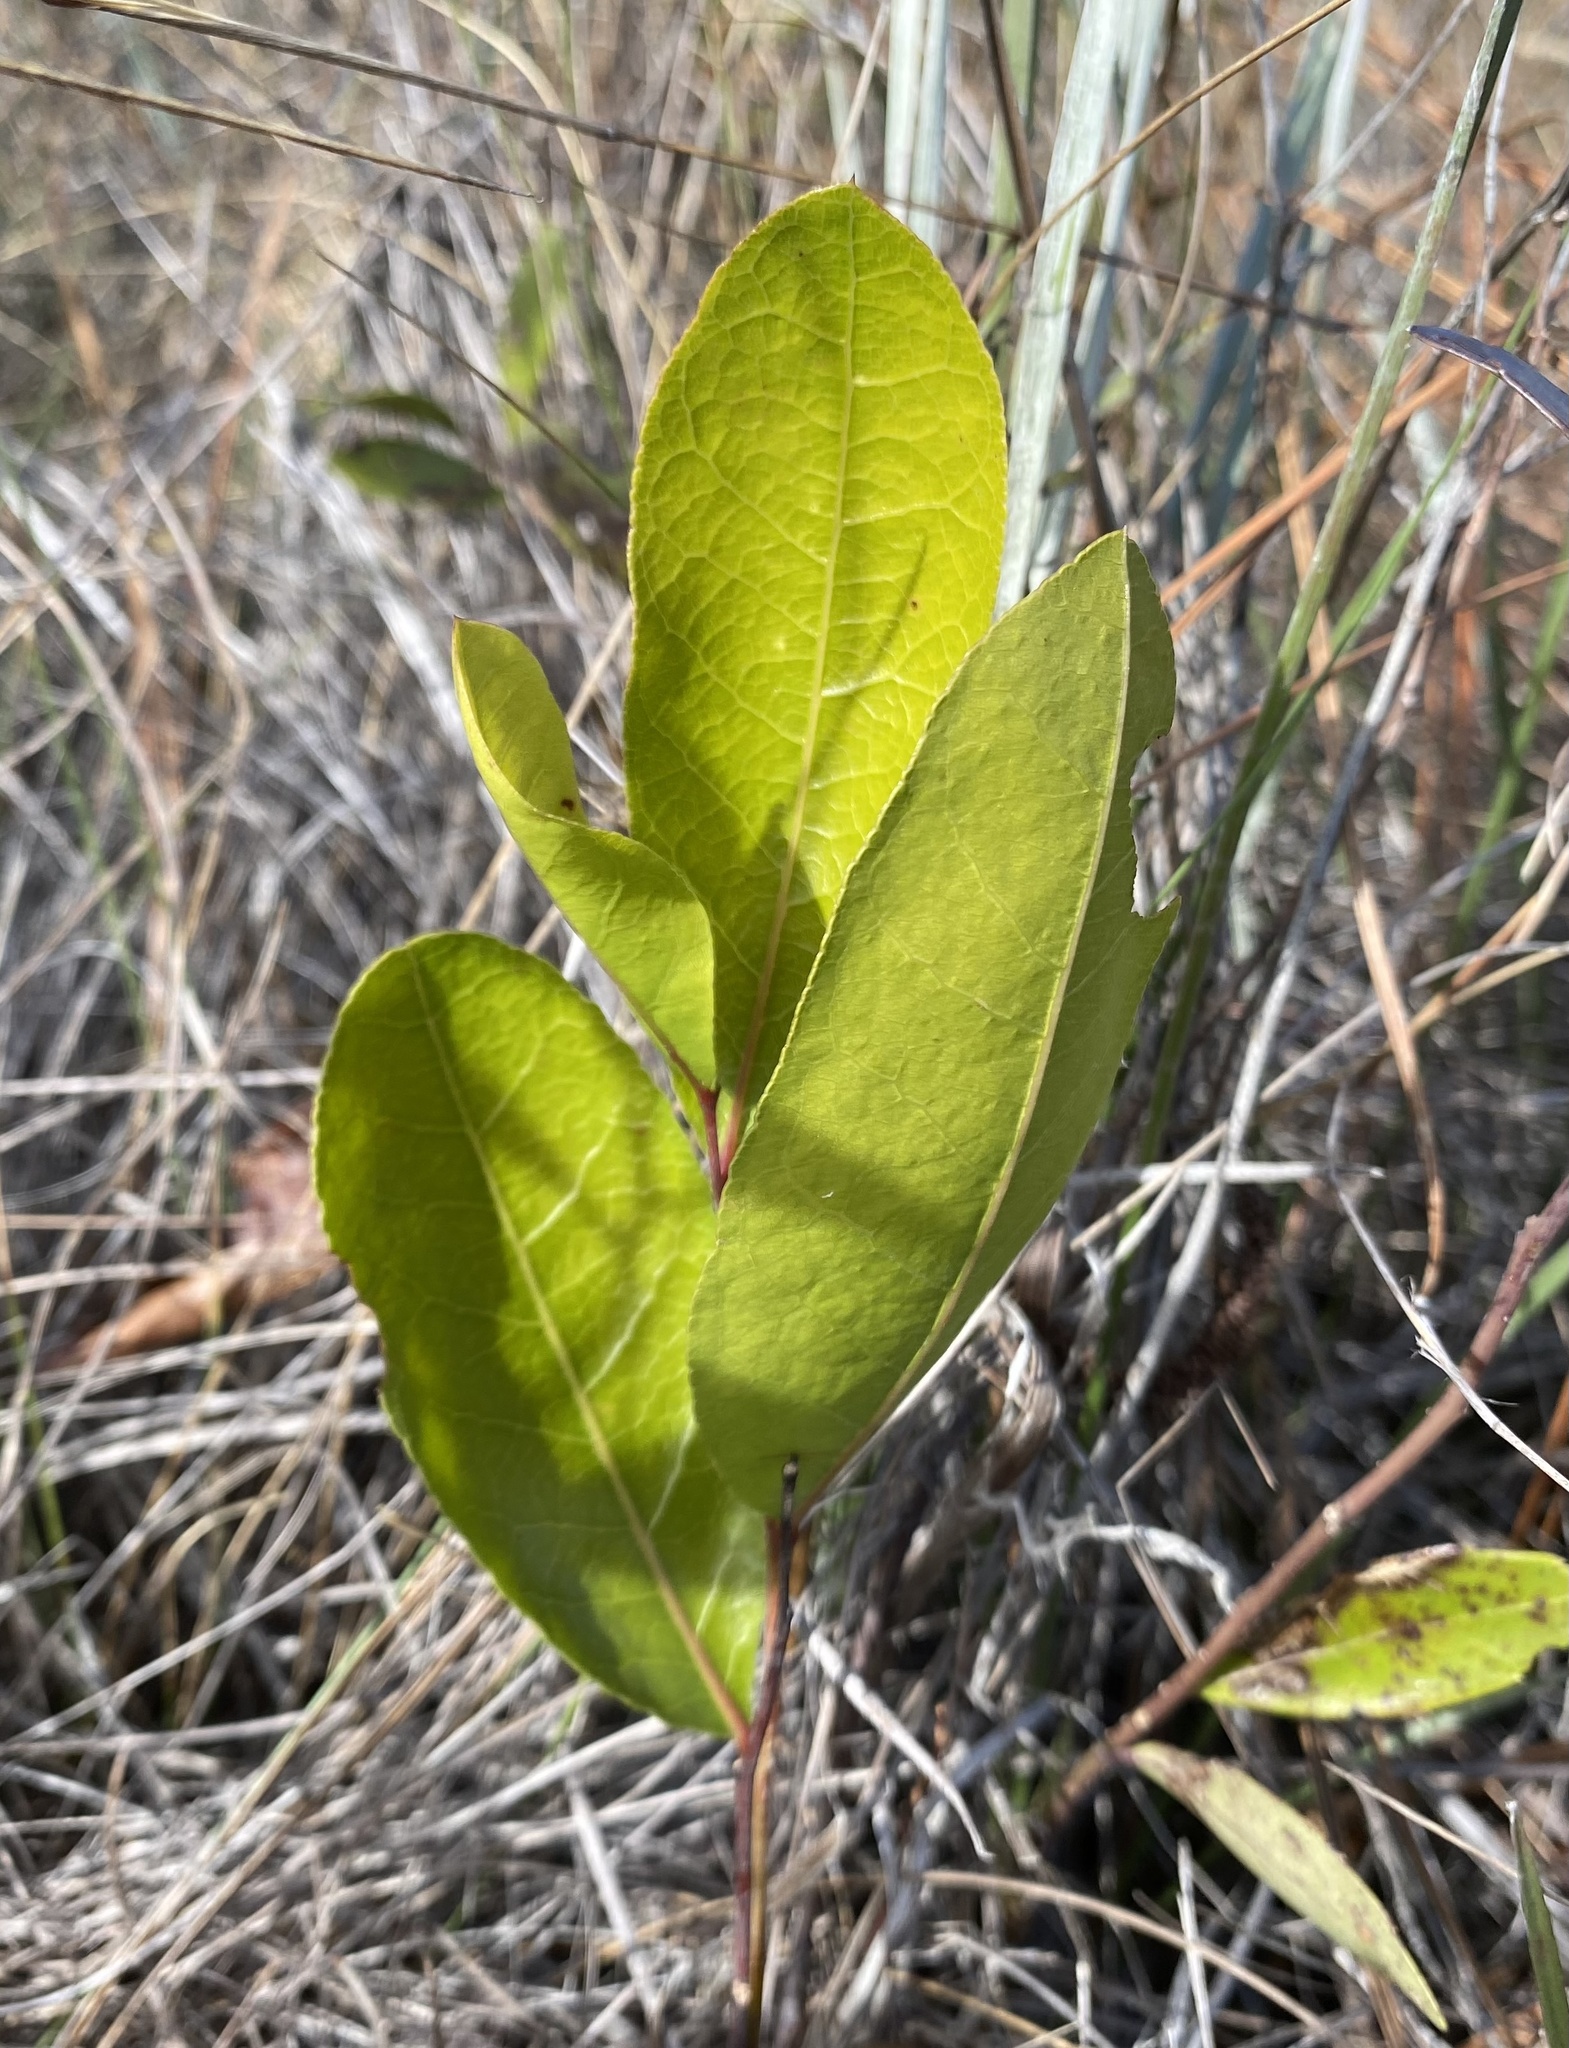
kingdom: Plantae
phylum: Tracheophyta
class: Magnoliopsida
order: Malpighiales
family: Chrysobalanaceae
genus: Geobalanus
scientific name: Geobalanus oblongifolius
